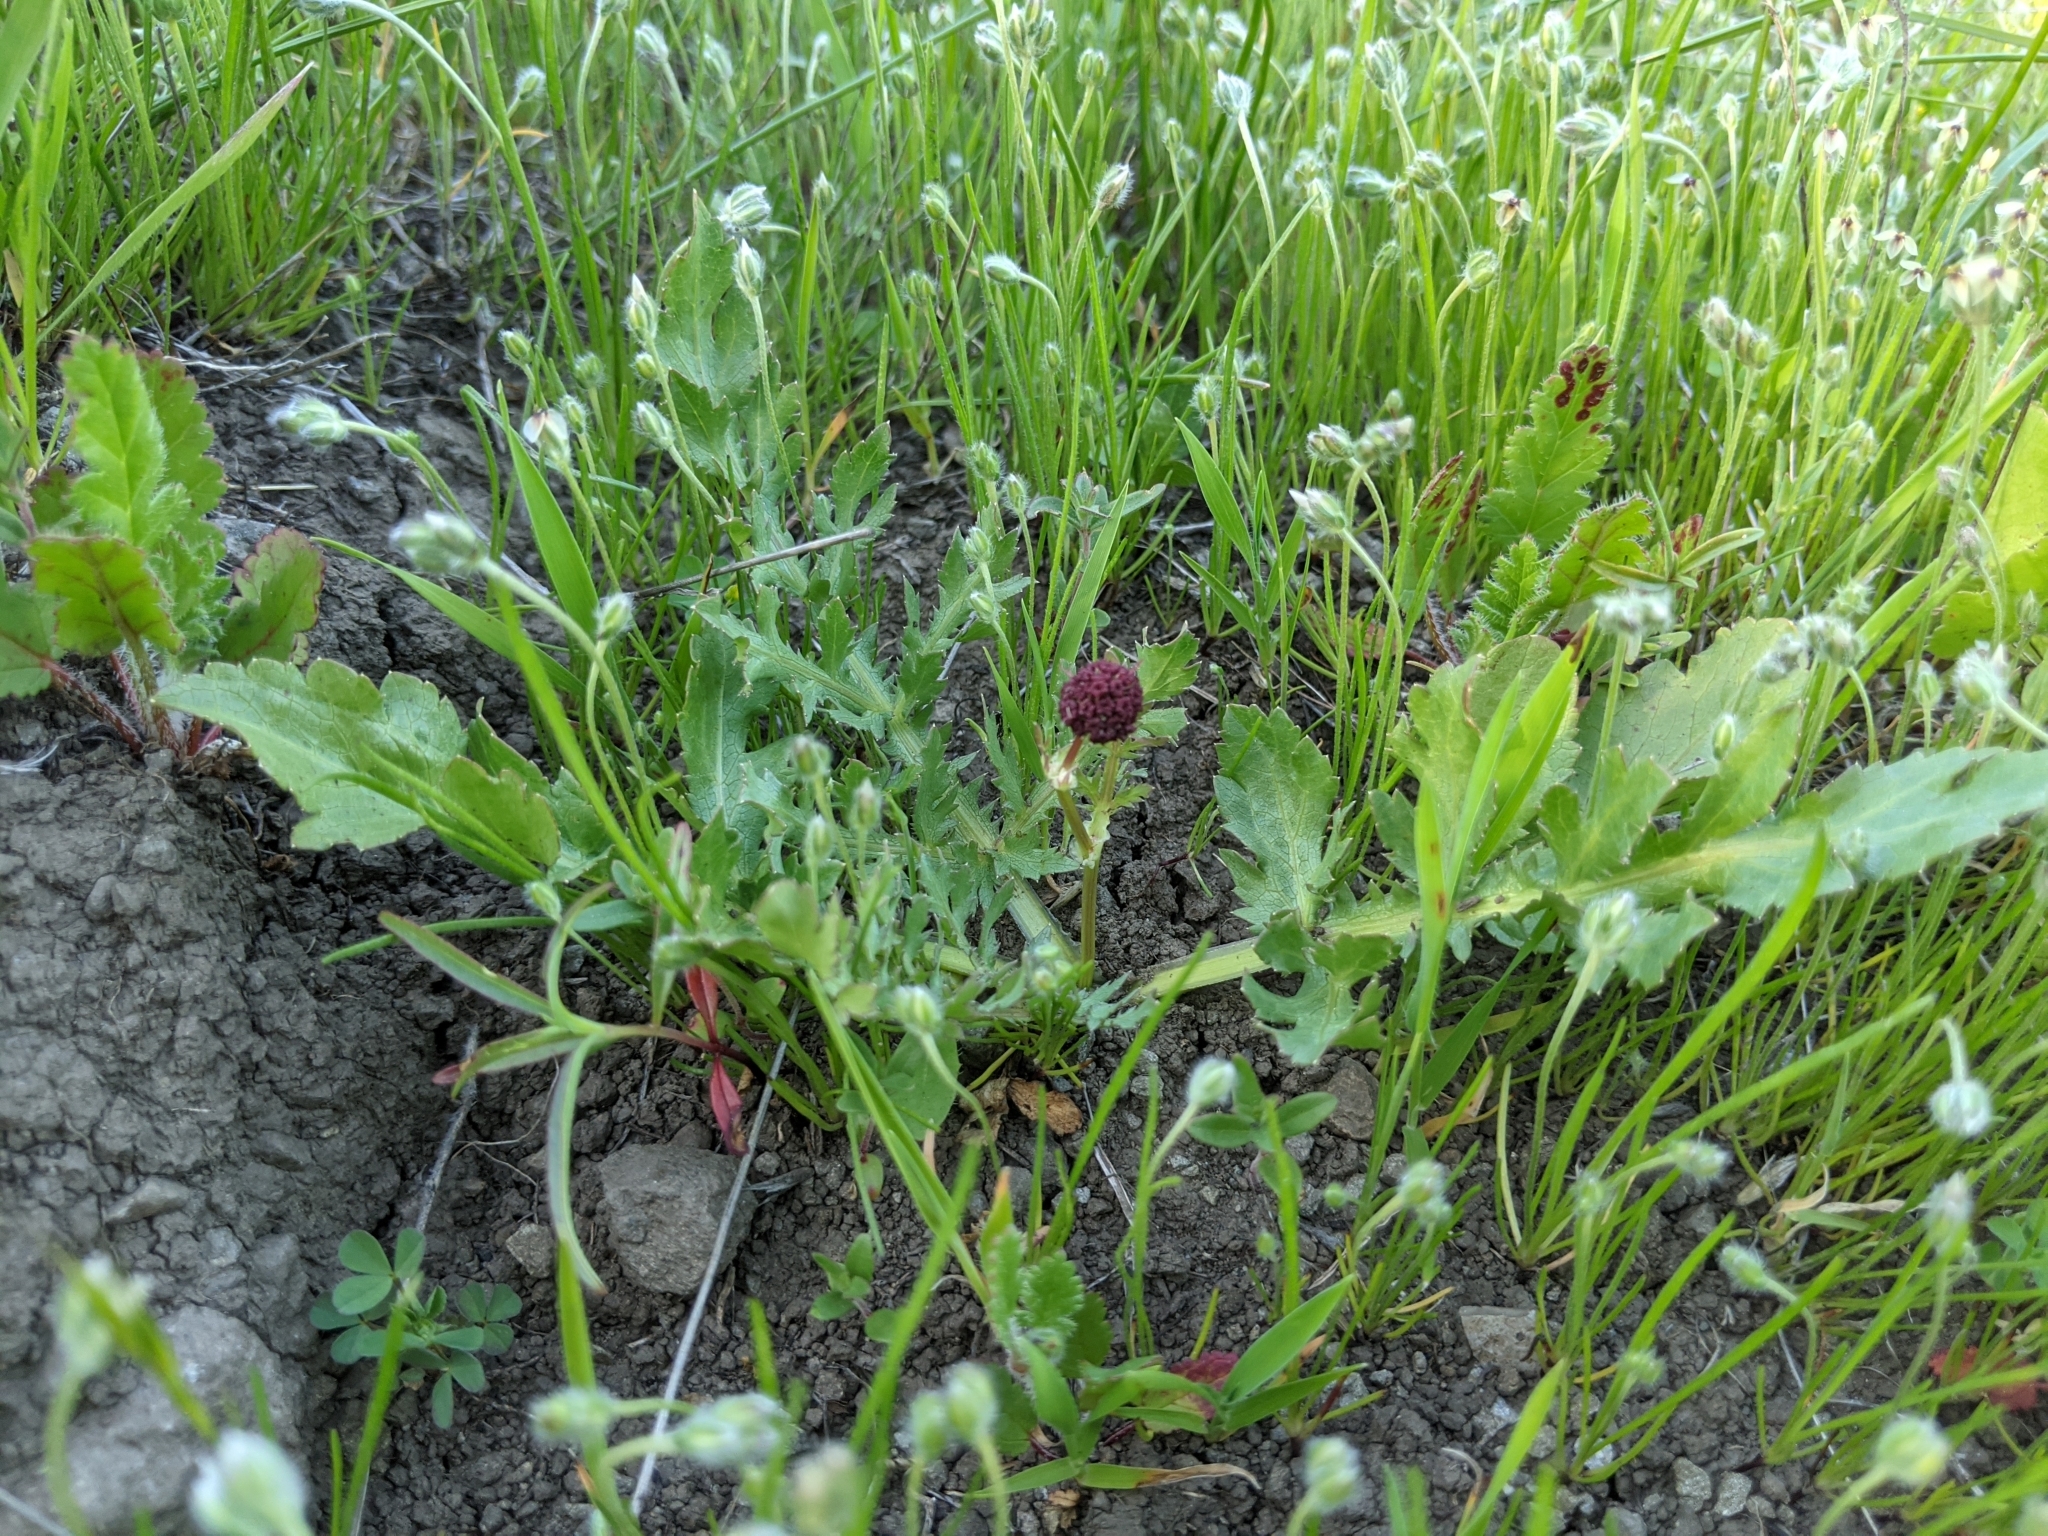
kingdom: Plantae
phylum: Tracheophyta
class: Magnoliopsida
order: Apiales
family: Apiaceae
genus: Sanicula
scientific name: Sanicula bipinnatifida
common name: Shoe-buttons
